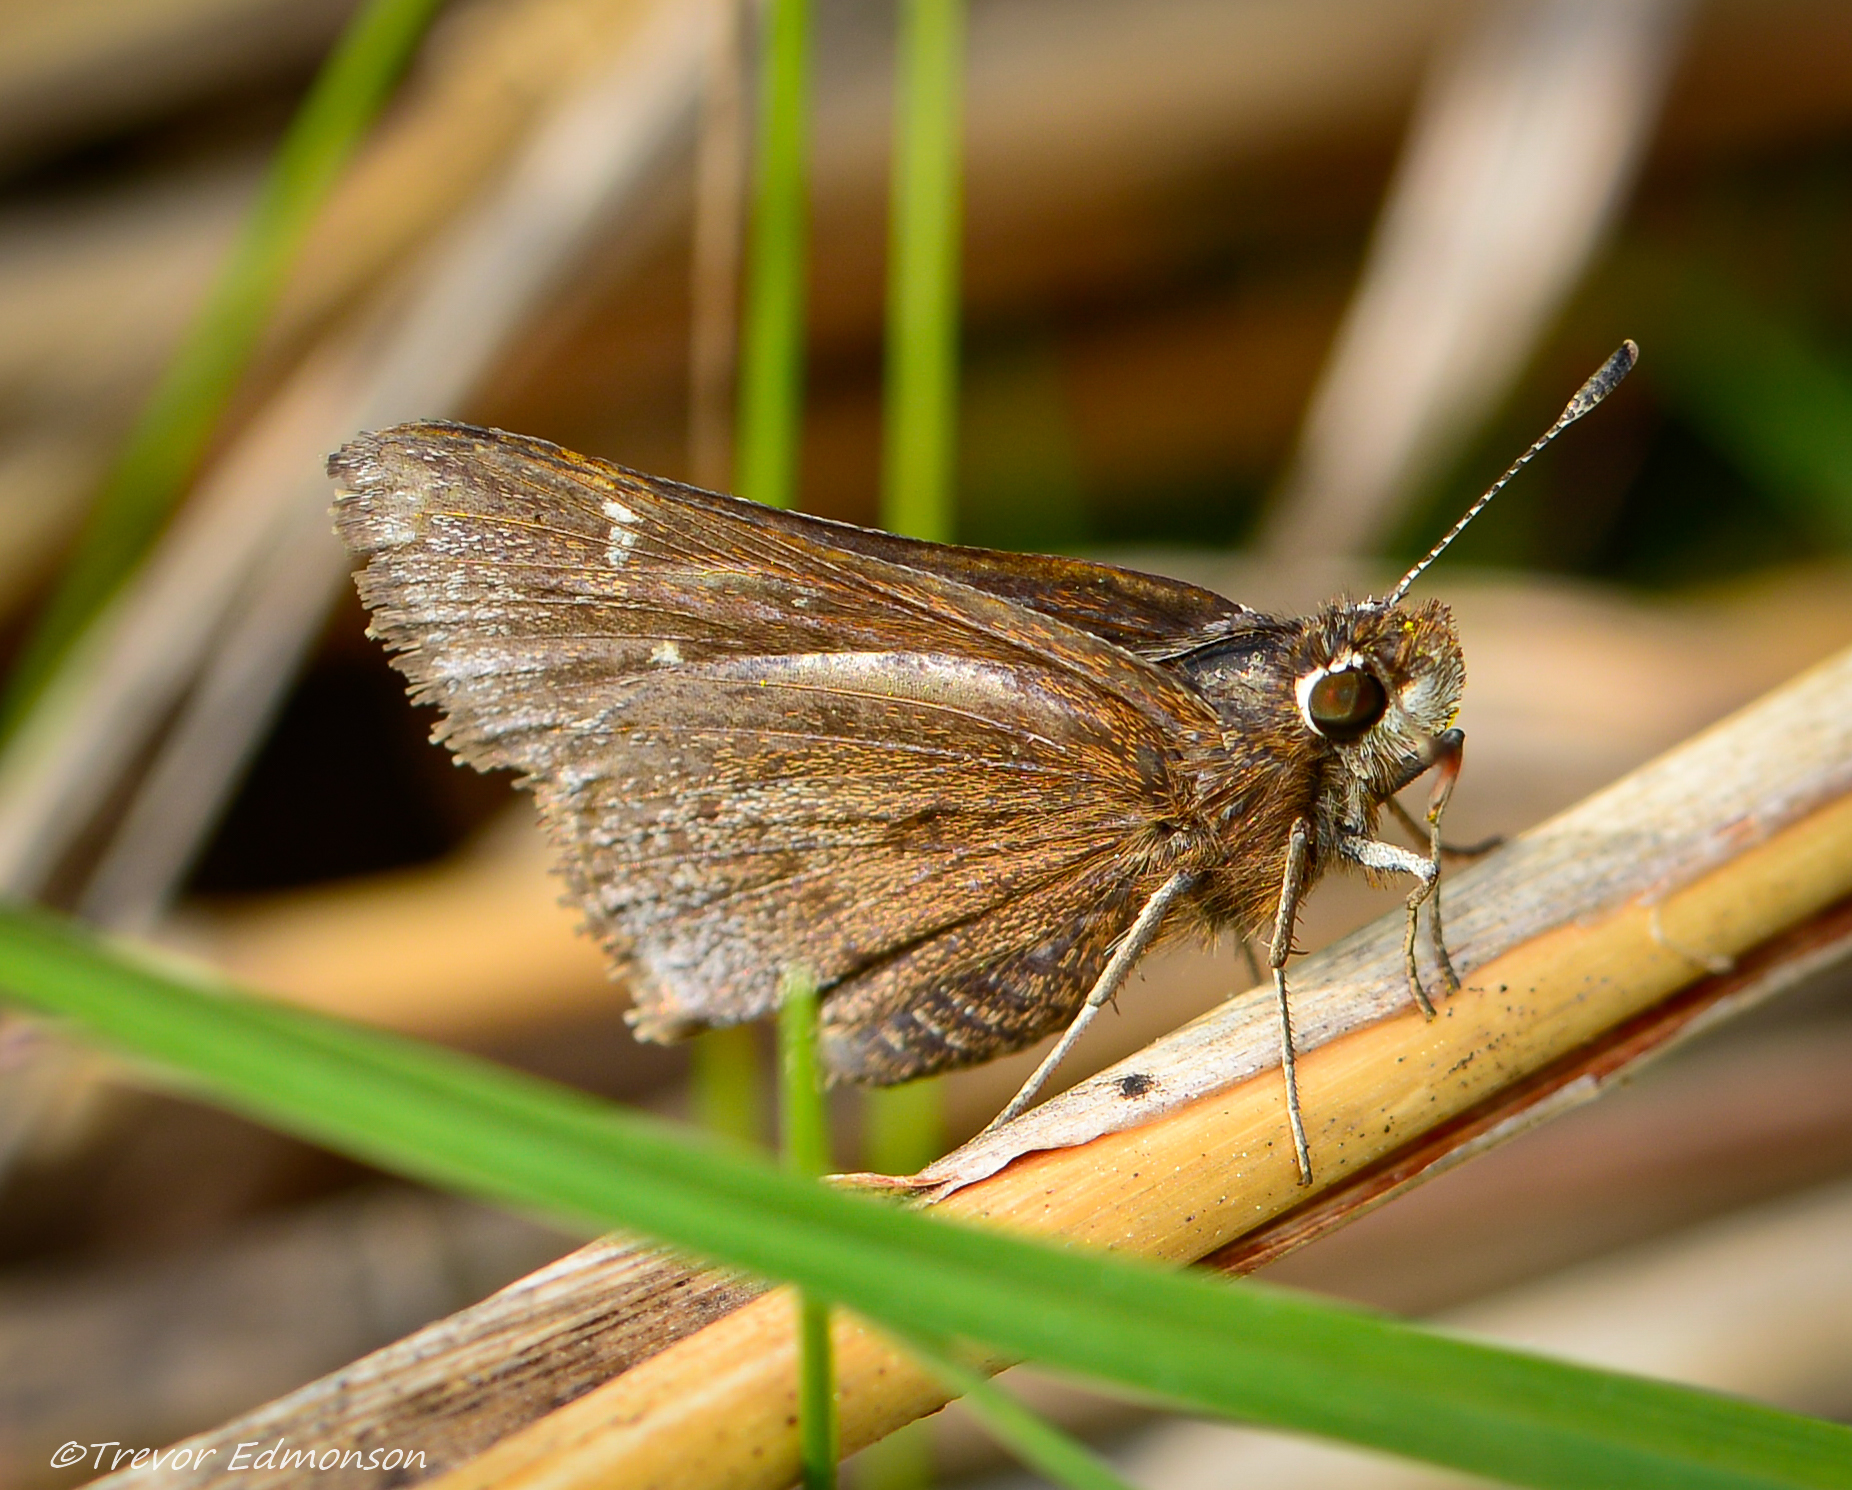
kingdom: Animalia
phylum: Arthropoda
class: Insecta
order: Lepidoptera
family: Hesperiidae
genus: Atrytonopsis
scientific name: Atrytonopsis hianna
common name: Dusted skipper
